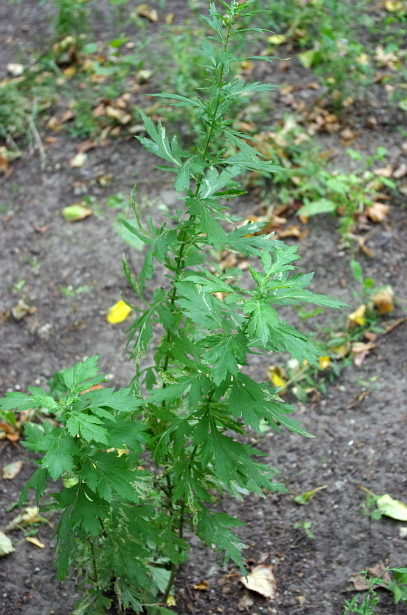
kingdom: Plantae
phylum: Tracheophyta
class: Magnoliopsida
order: Asterales
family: Asteraceae
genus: Artemisia
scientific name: Artemisia vulgaris
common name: Mugwort
